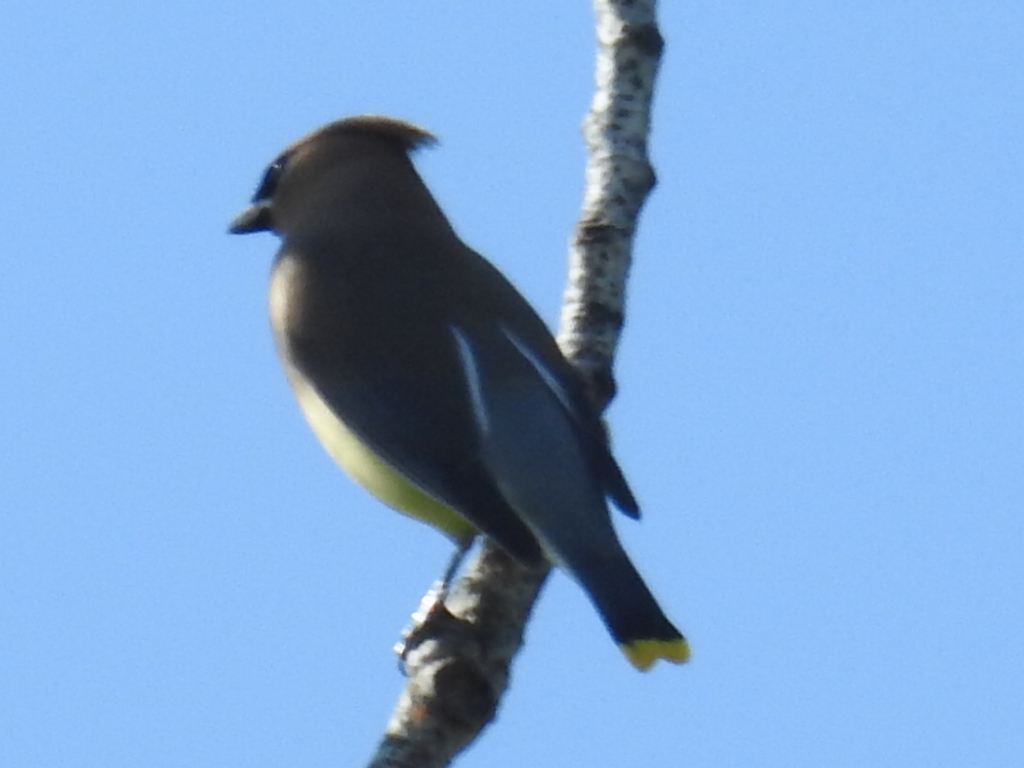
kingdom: Animalia
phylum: Chordata
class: Aves
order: Passeriformes
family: Bombycillidae
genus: Bombycilla
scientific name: Bombycilla cedrorum
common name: Cedar waxwing
